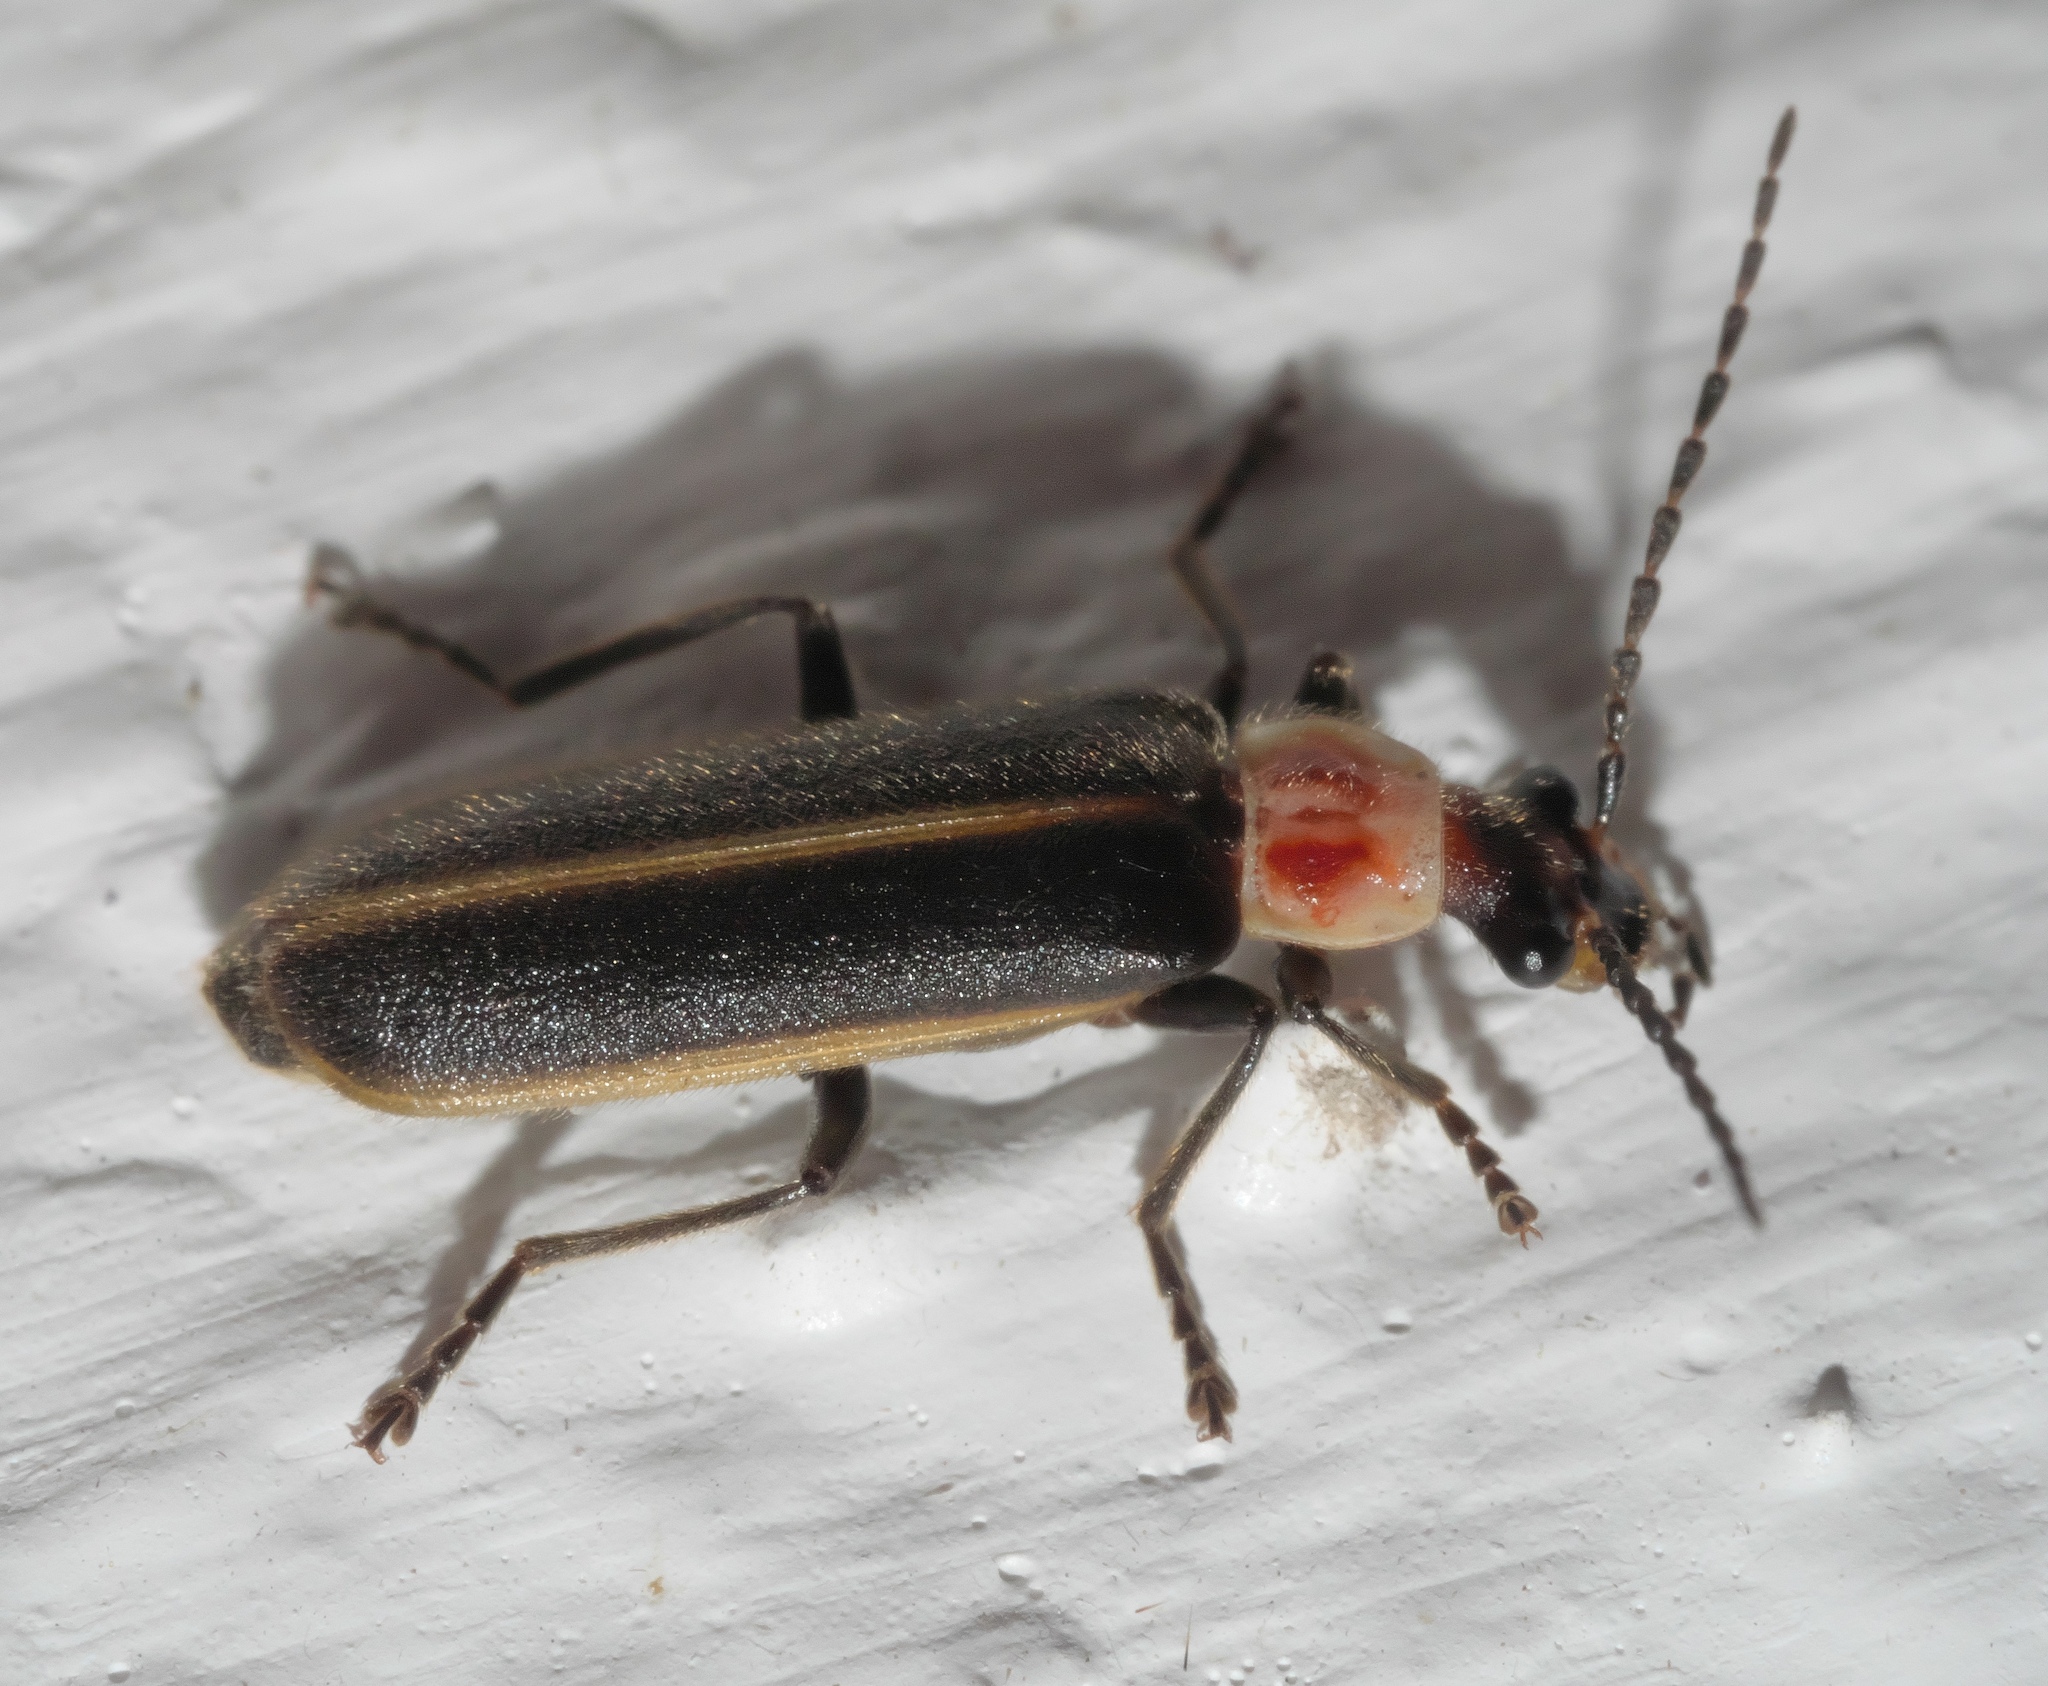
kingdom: Animalia
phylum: Arthropoda
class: Insecta
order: Coleoptera
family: Cantharidae
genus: Podabrus
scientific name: Podabrus knobeli
